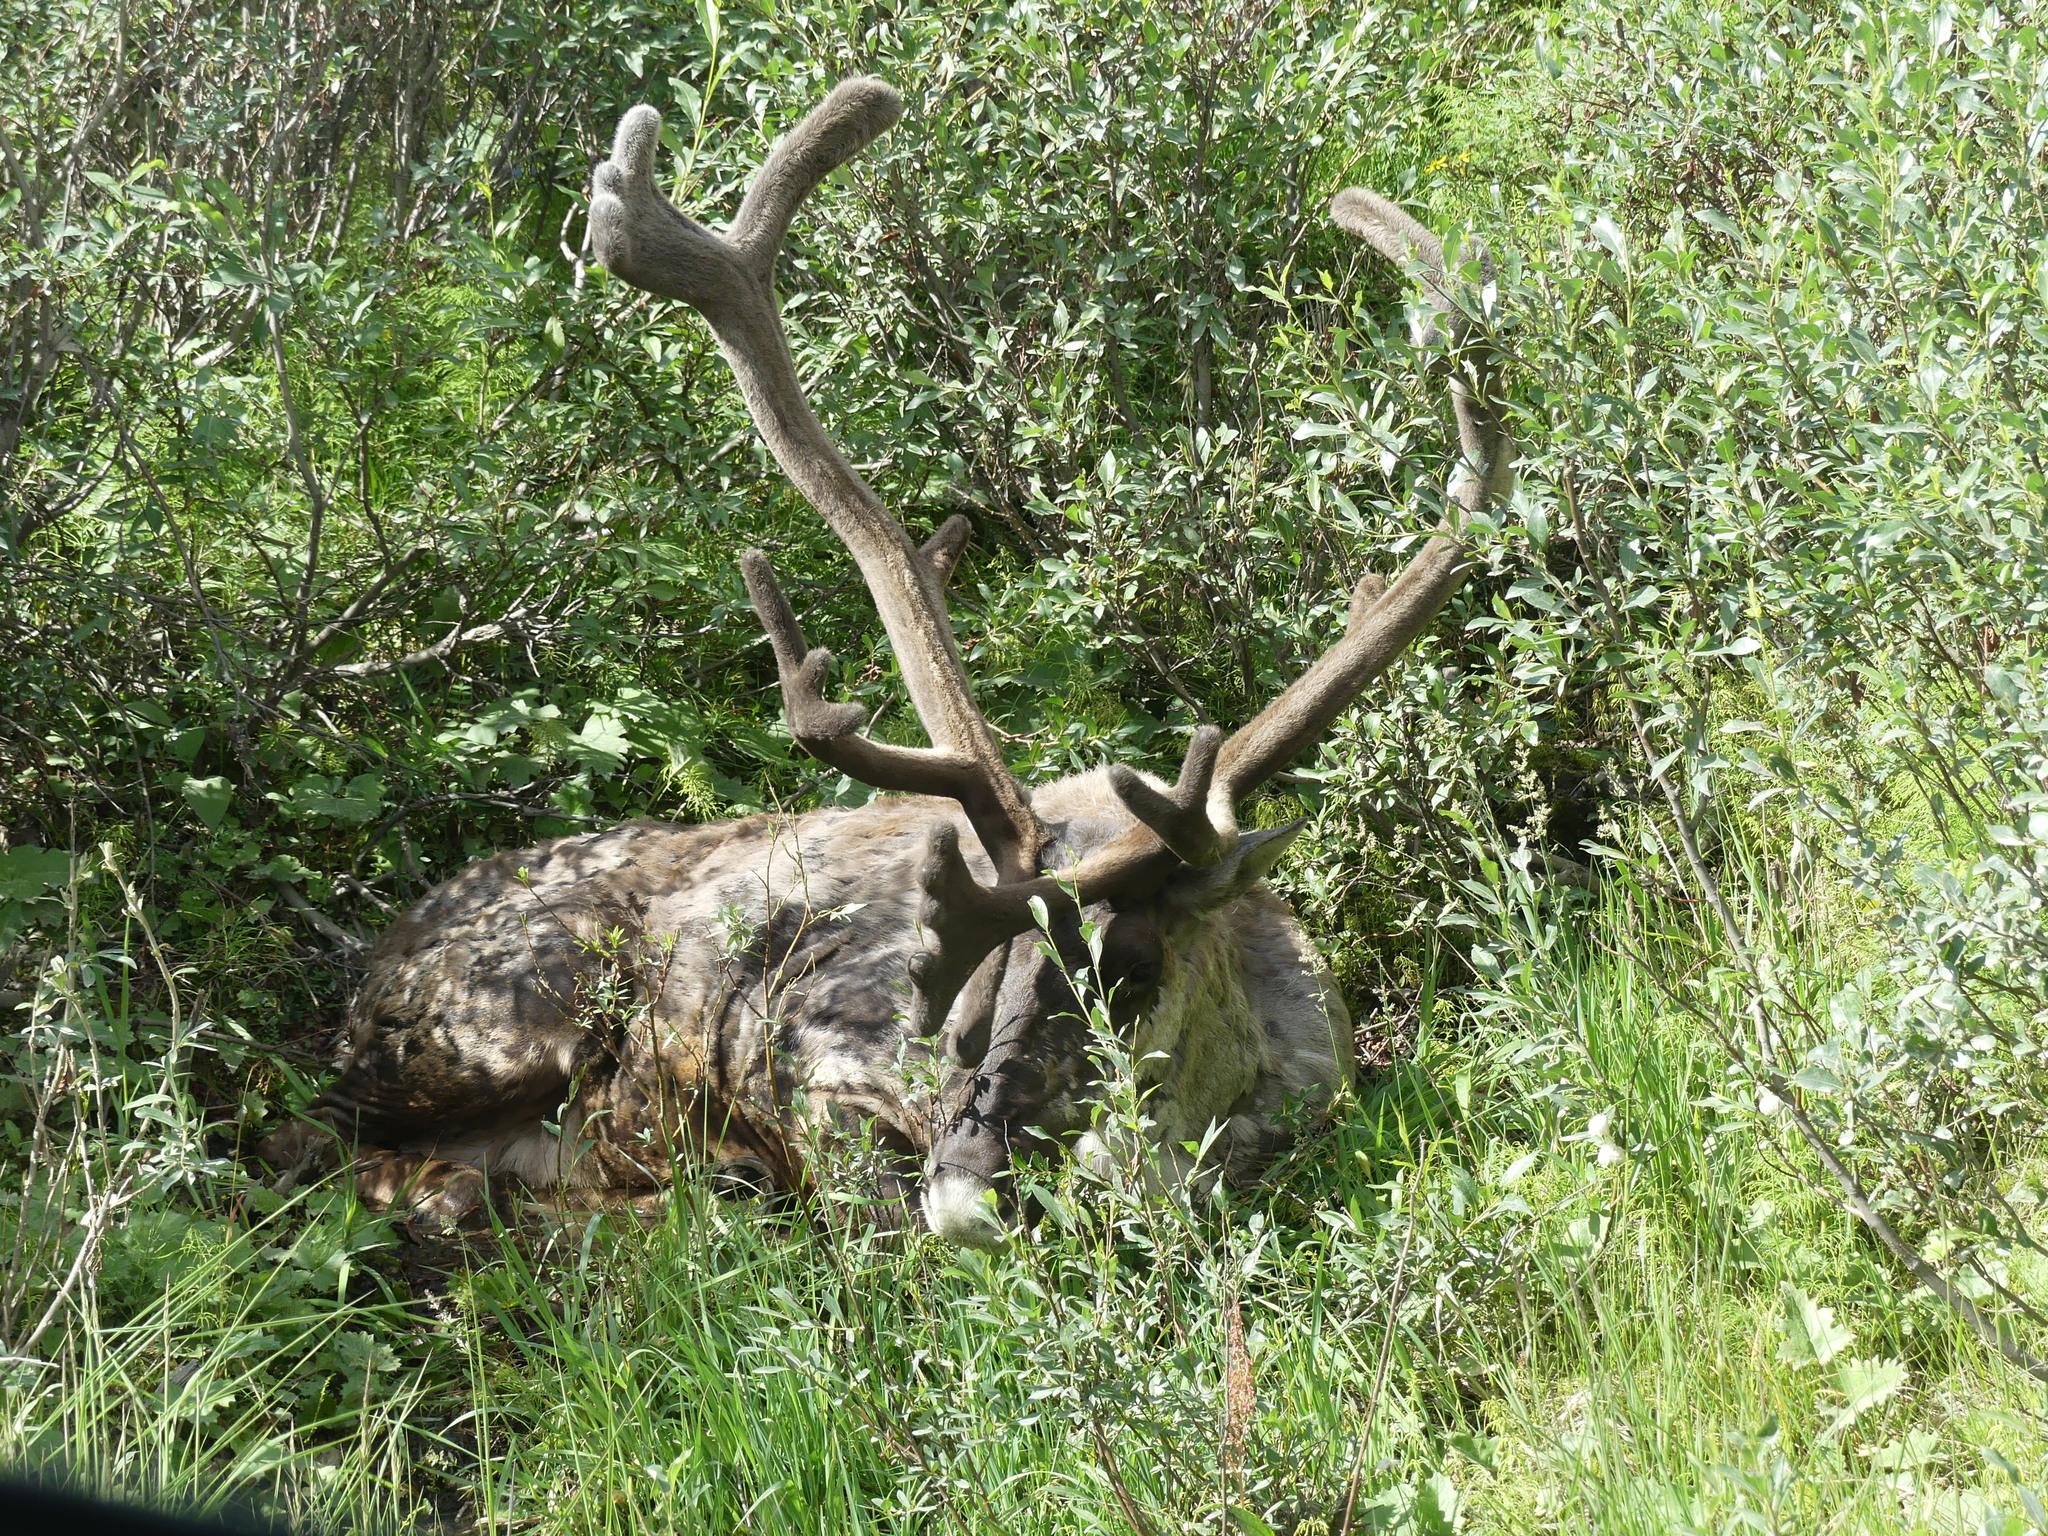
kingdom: Animalia
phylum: Chordata
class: Mammalia
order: Artiodactyla
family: Cervidae
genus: Rangifer
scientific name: Rangifer tarandus
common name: Reindeer
